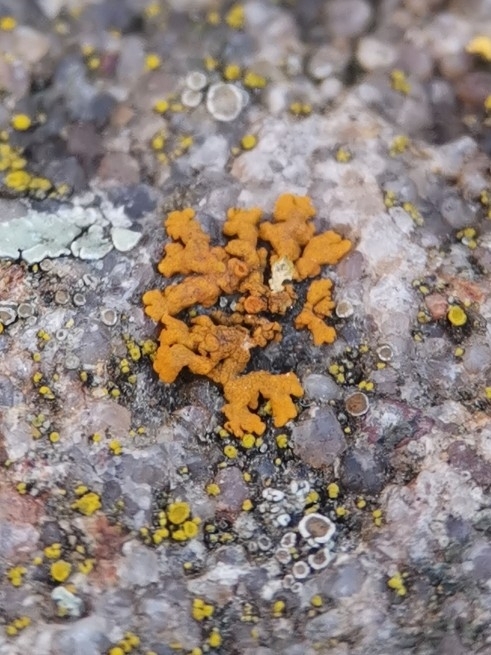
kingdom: Fungi
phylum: Ascomycota
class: Lecanoromycetes
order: Teloschistales
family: Teloschistaceae
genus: Xanthoria
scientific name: Xanthoria elegans
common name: Elegant sunburst lichen
